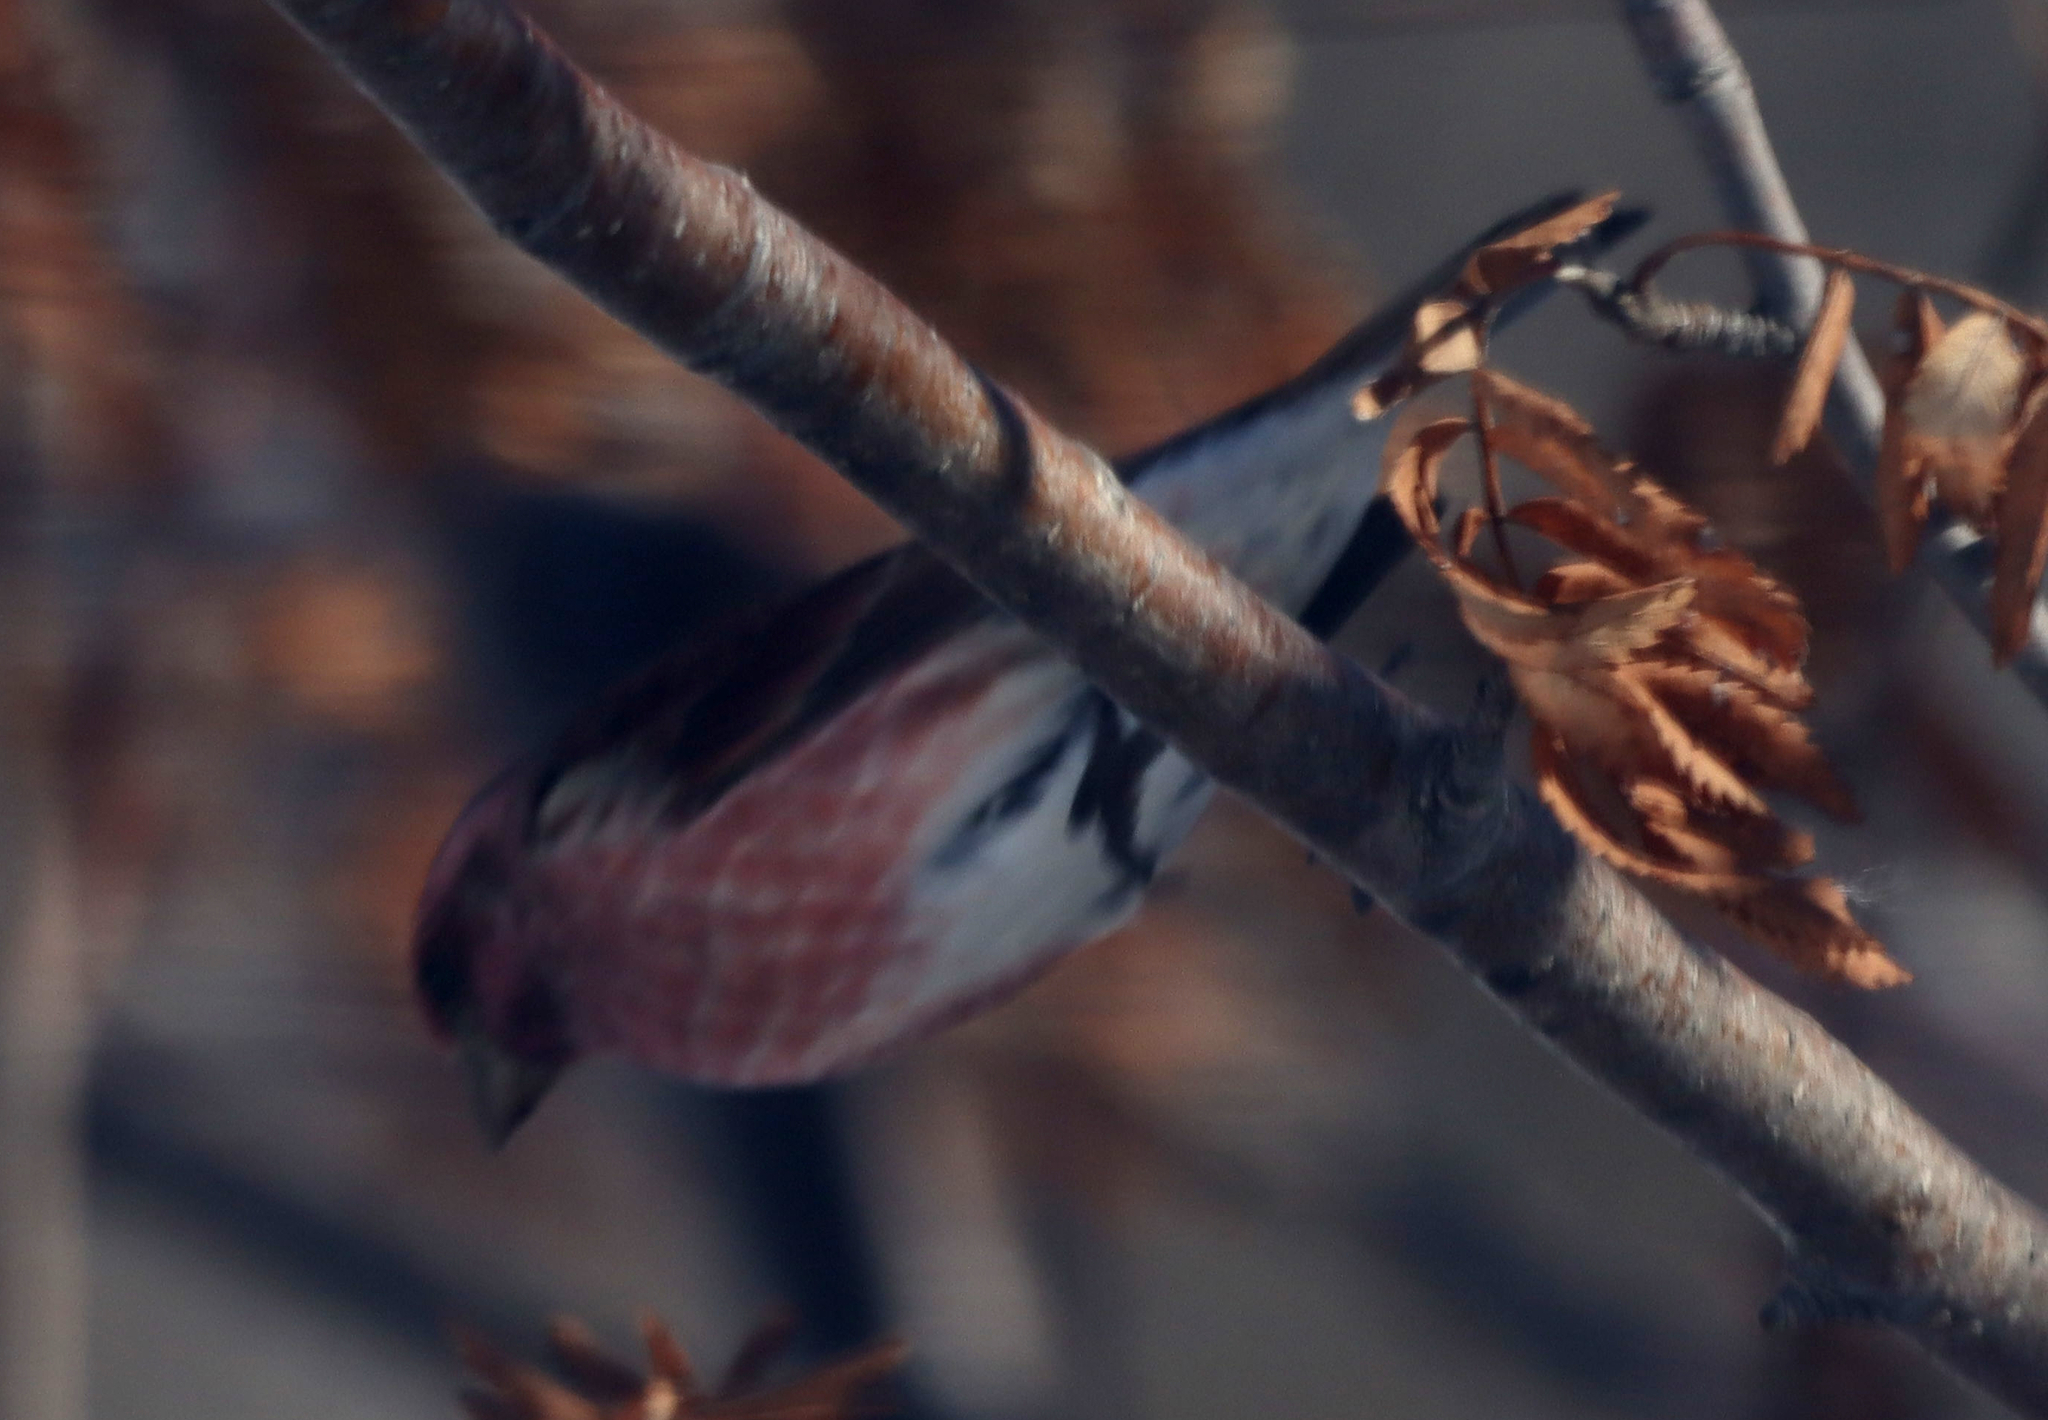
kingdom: Animalia
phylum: Chordata
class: Aves
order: Passeriformes
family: Fringillidae
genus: Haemorhous
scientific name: Haemorhous purpureus
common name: Purple finch
